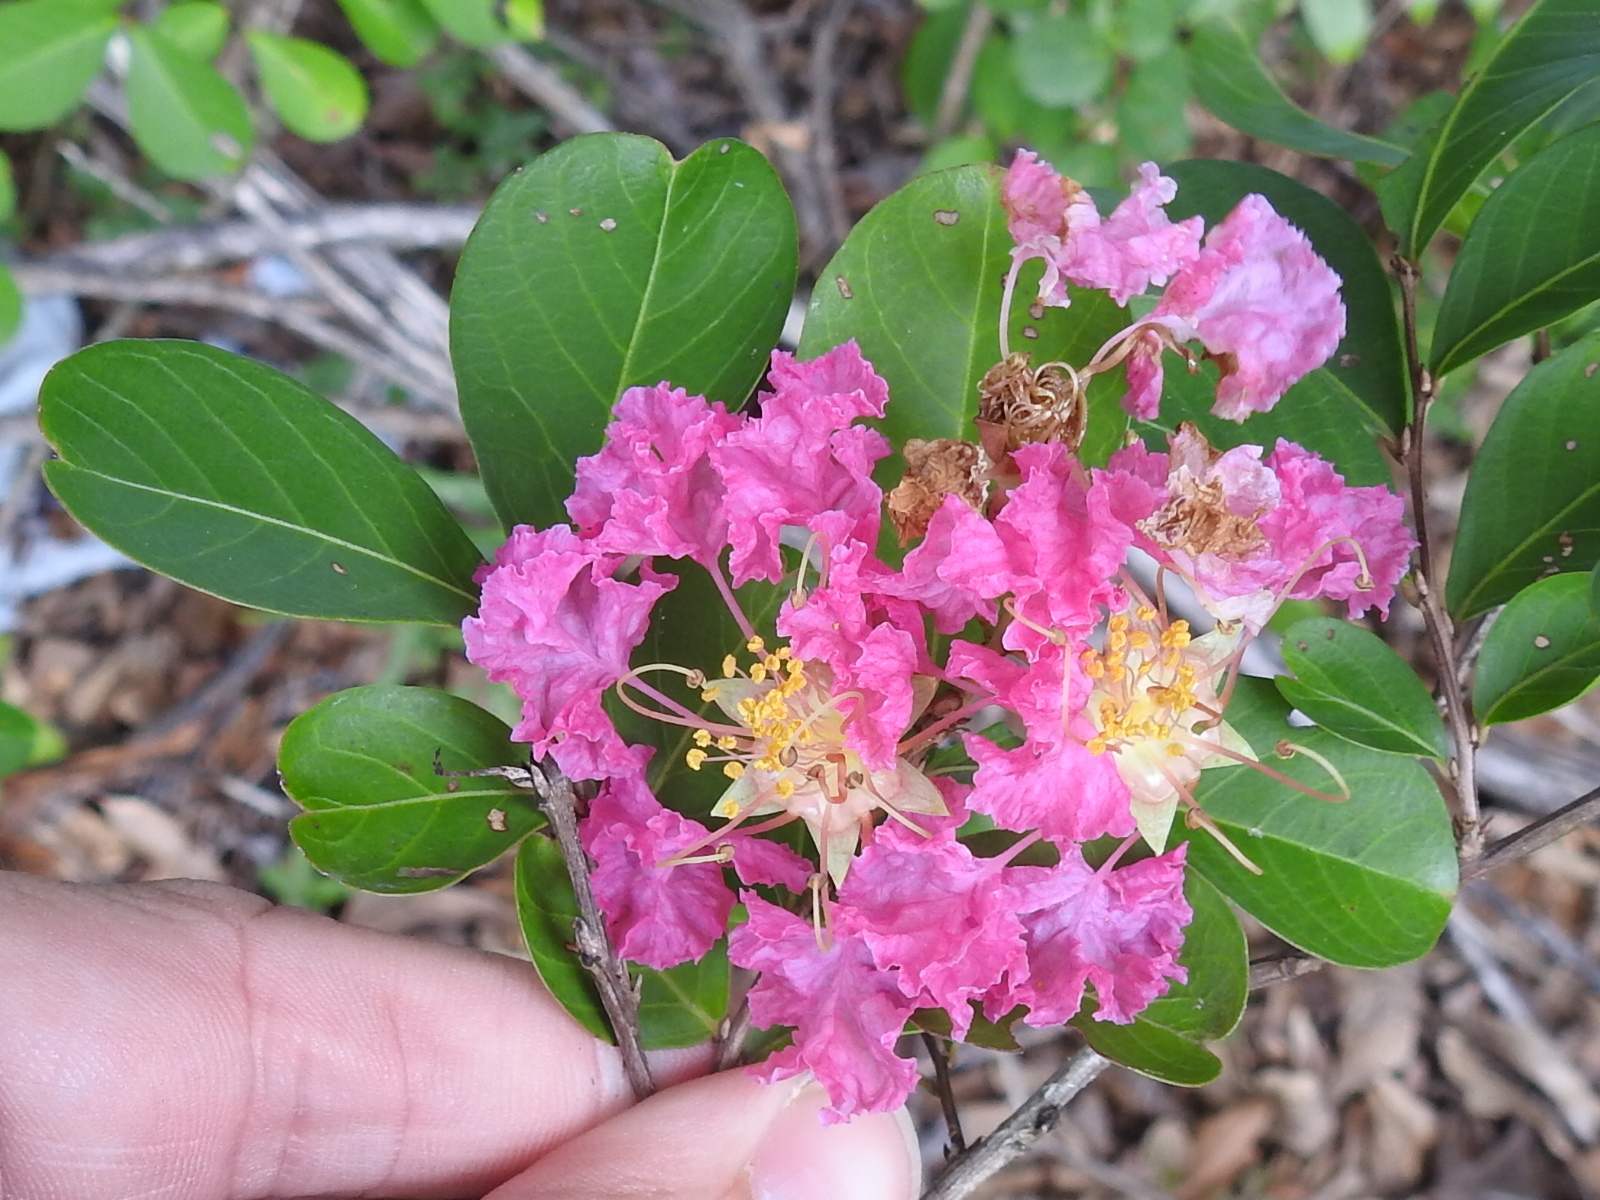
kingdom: Plantae
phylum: Tracheophyta
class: Magnoliopsida
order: Myrtales
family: Lythraceae
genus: Lagerstroemia
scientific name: Lagerstroemia indica
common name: Crape-myrtle
